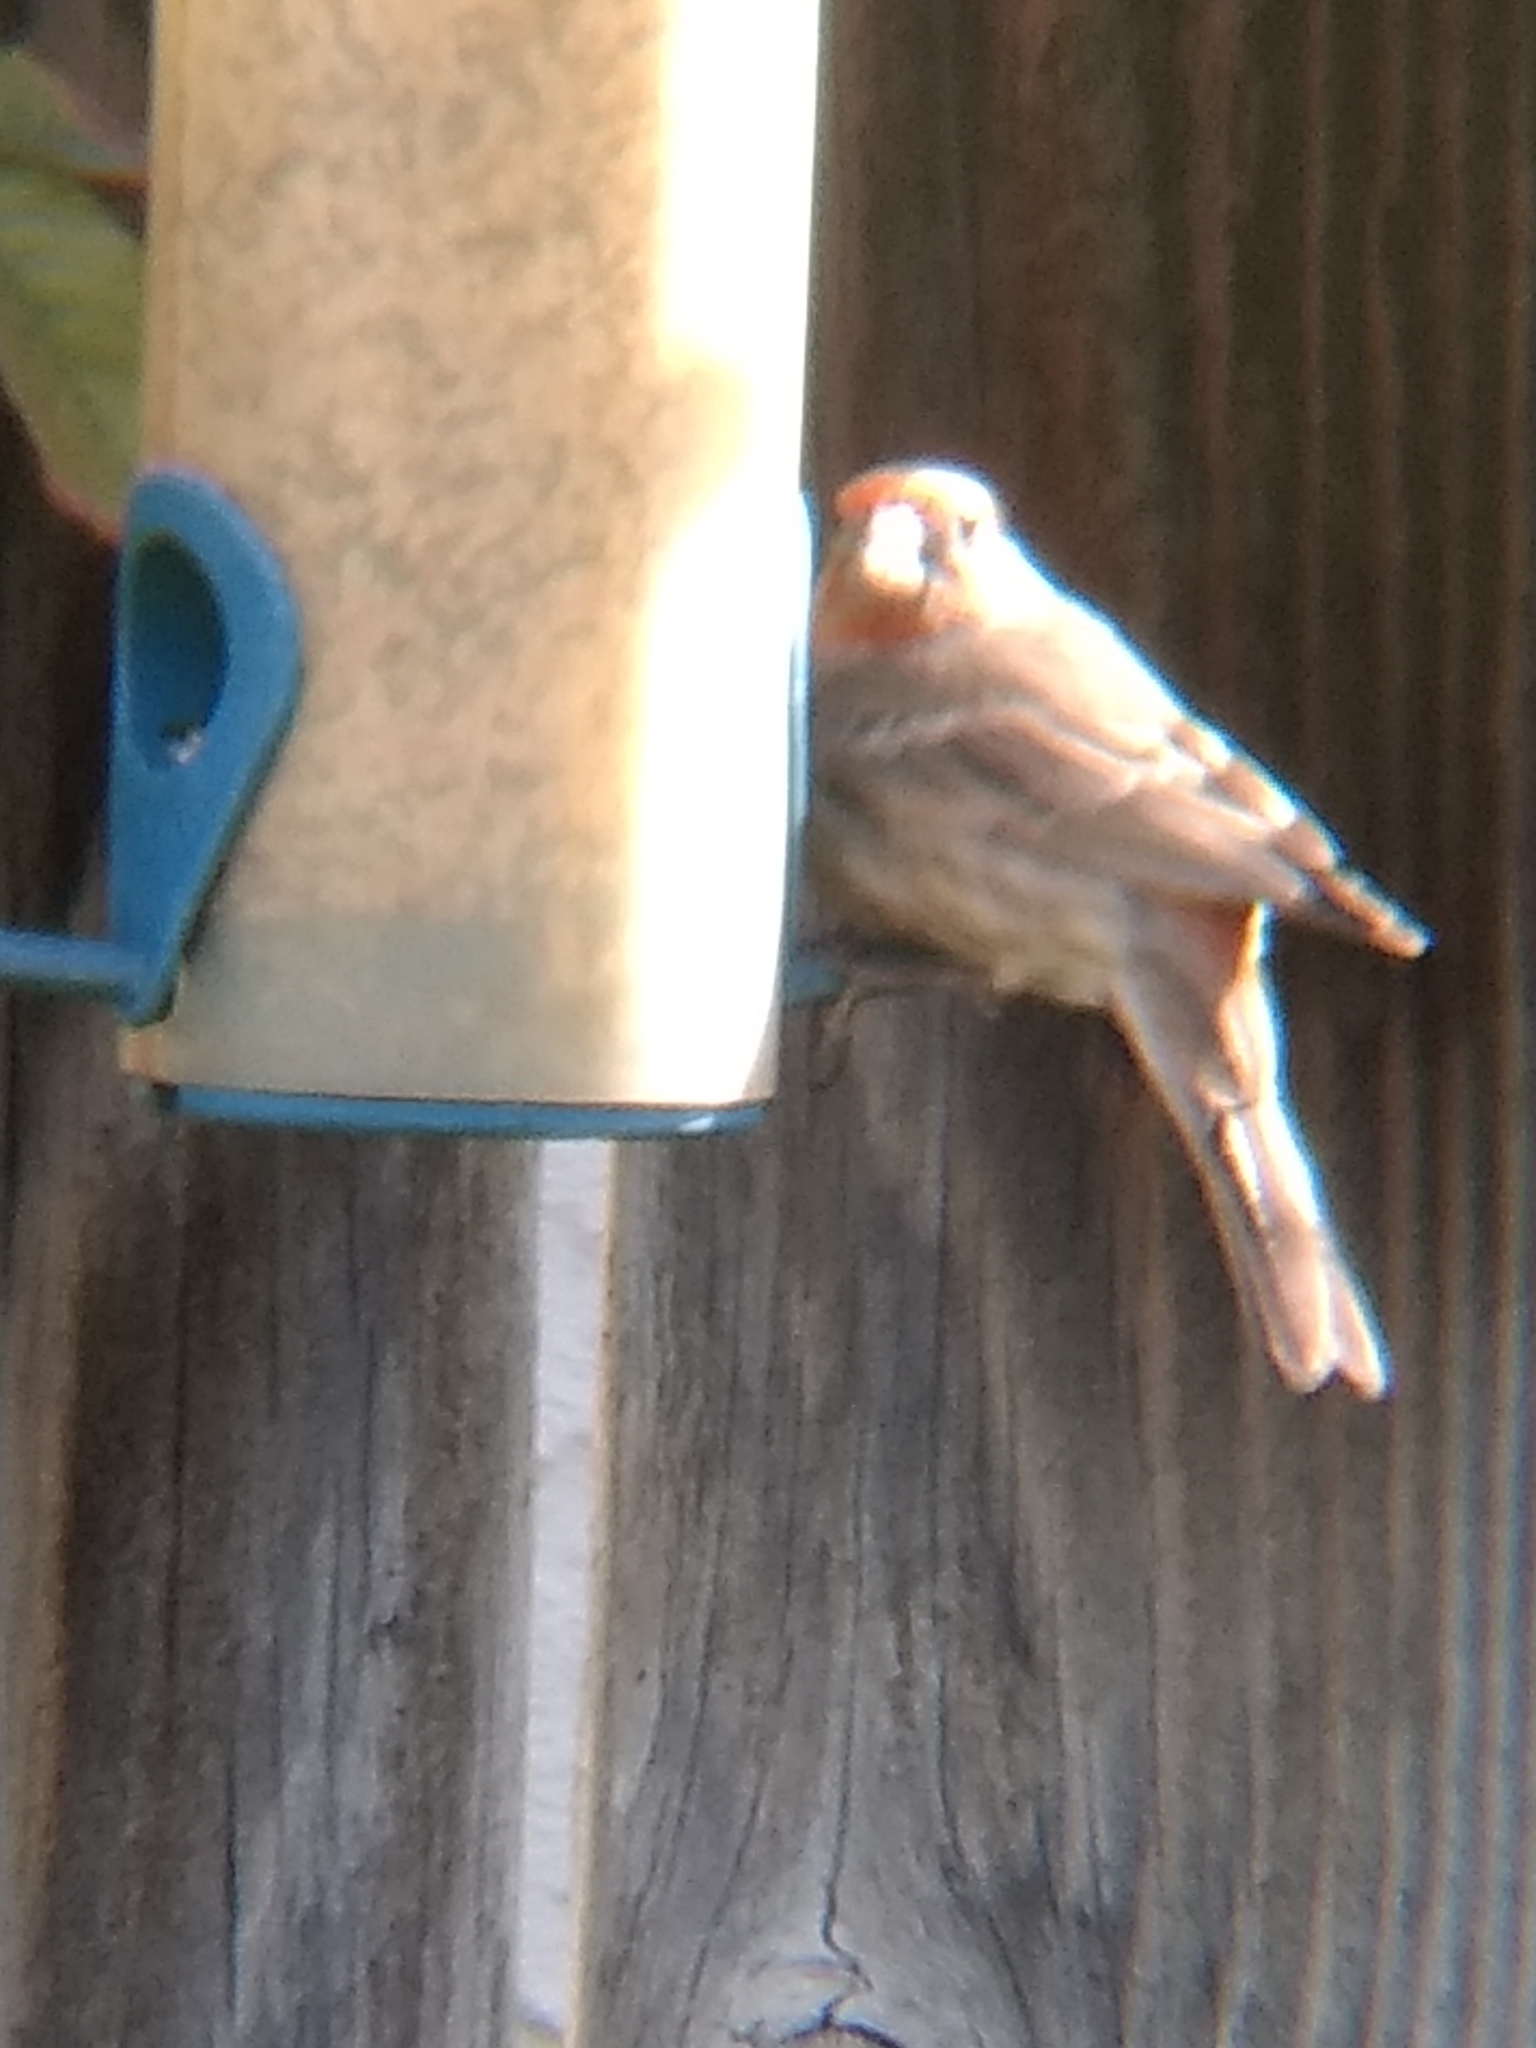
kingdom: Animalia
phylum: Chordata
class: Aves
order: Passeriformes
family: Fringillidae
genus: Haemorhous
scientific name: Haemorhous mexicanus
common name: House finch
